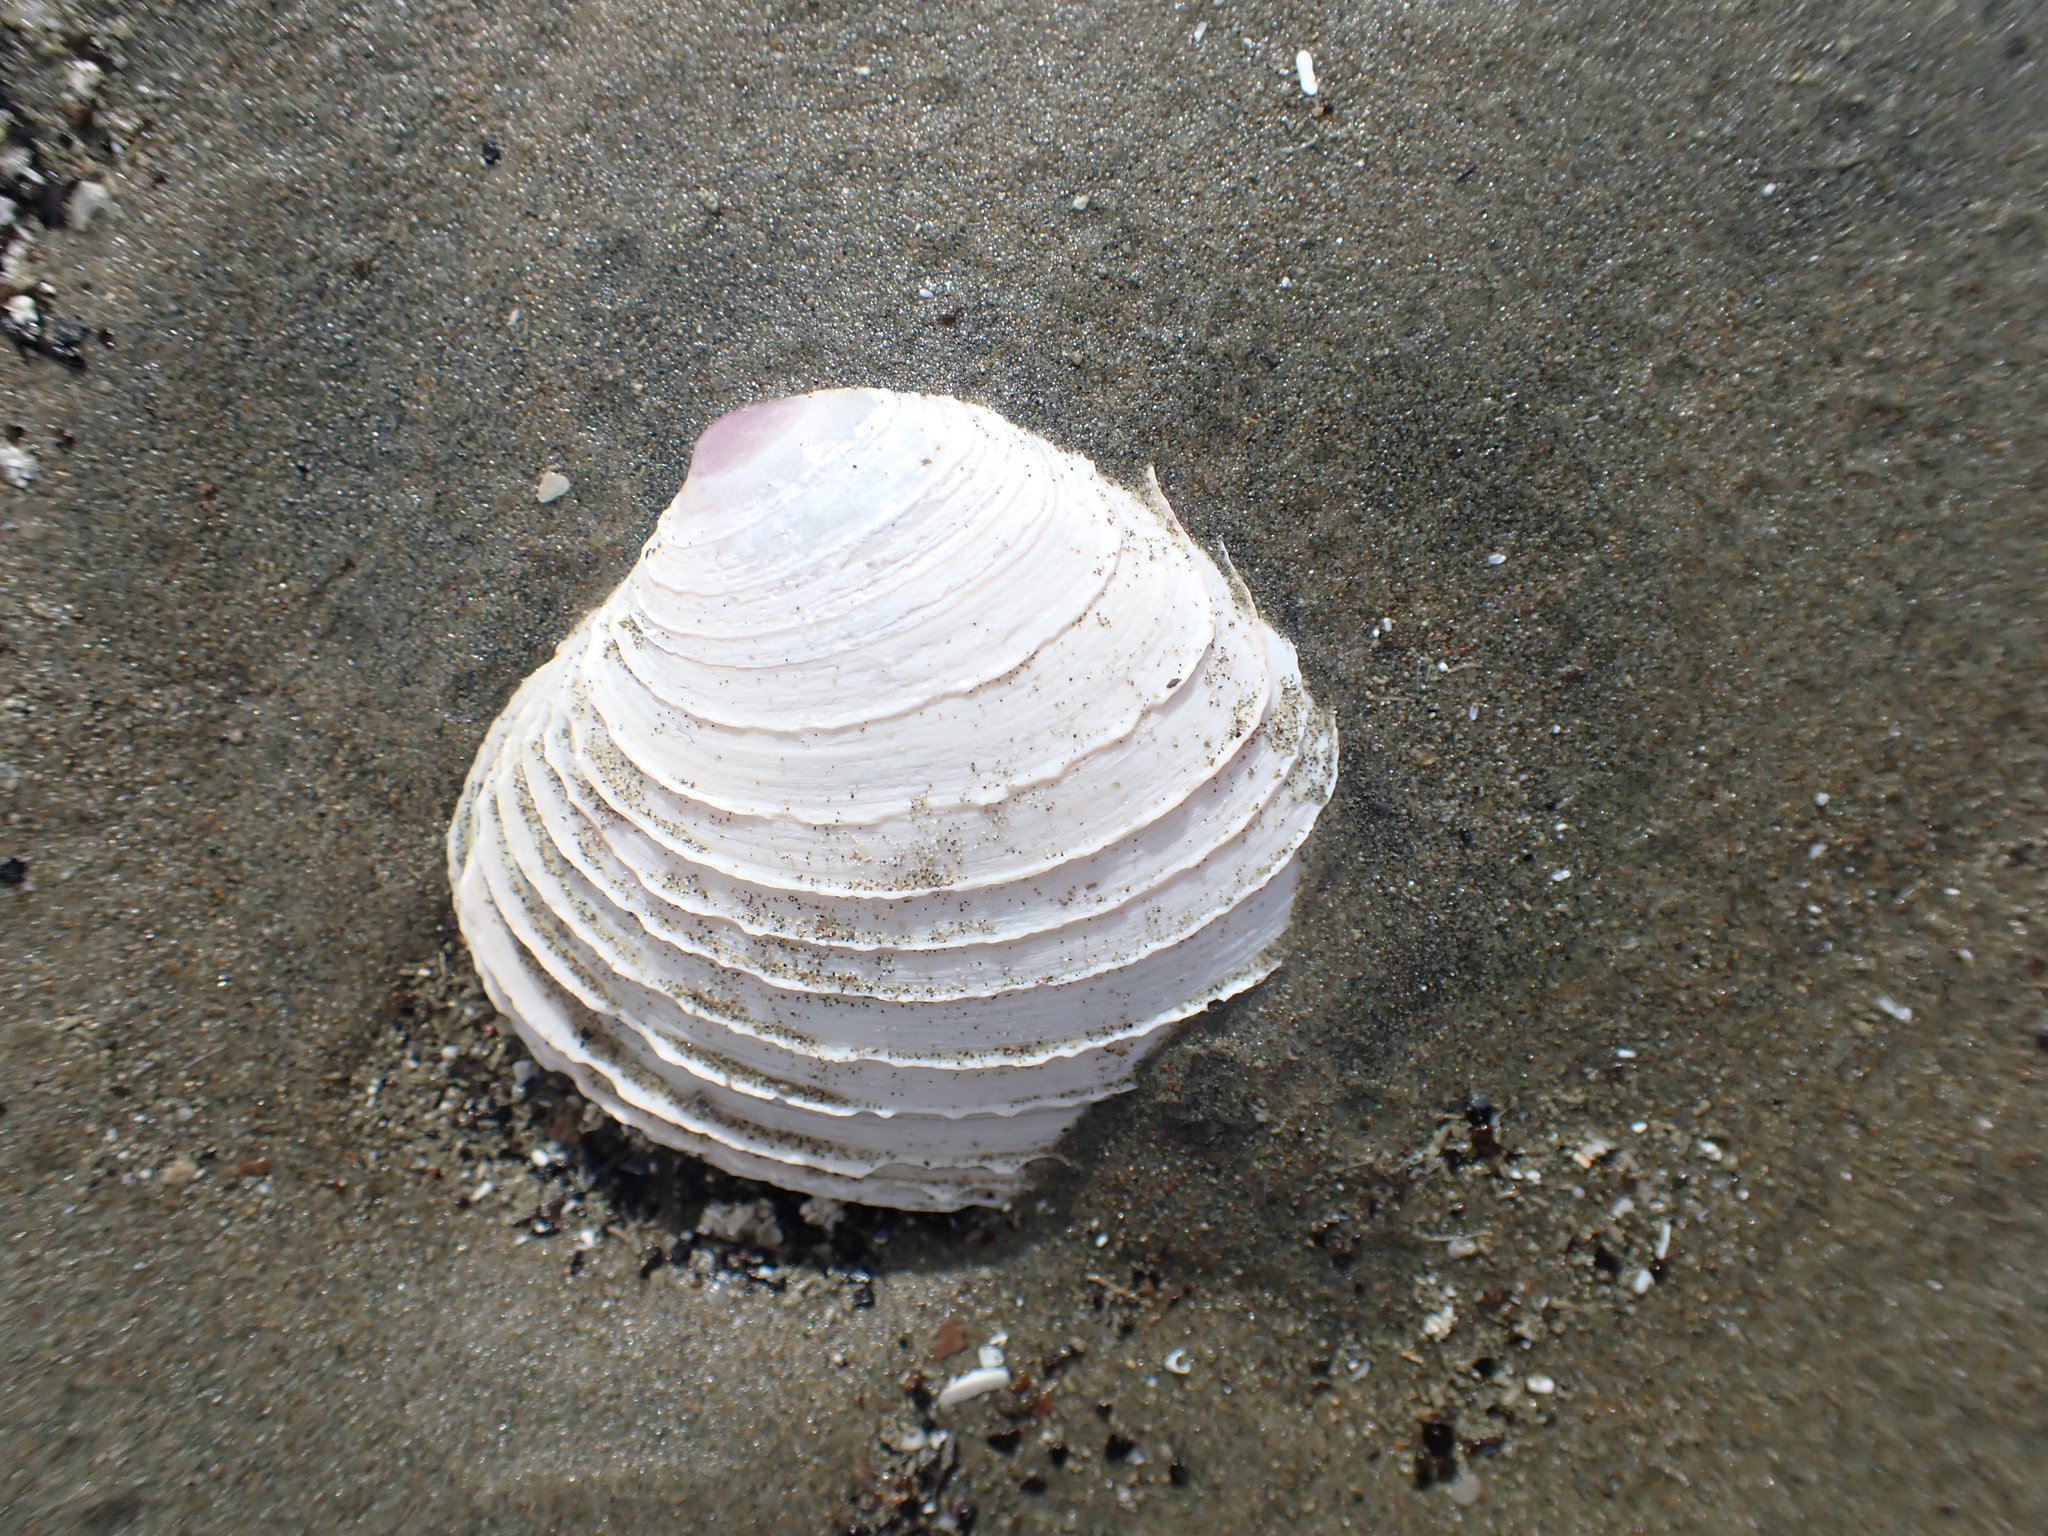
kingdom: Animalia
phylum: Mollusca
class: Bivalvia
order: Venerida
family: Veneridae
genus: Bassina
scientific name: Bassina yatei
